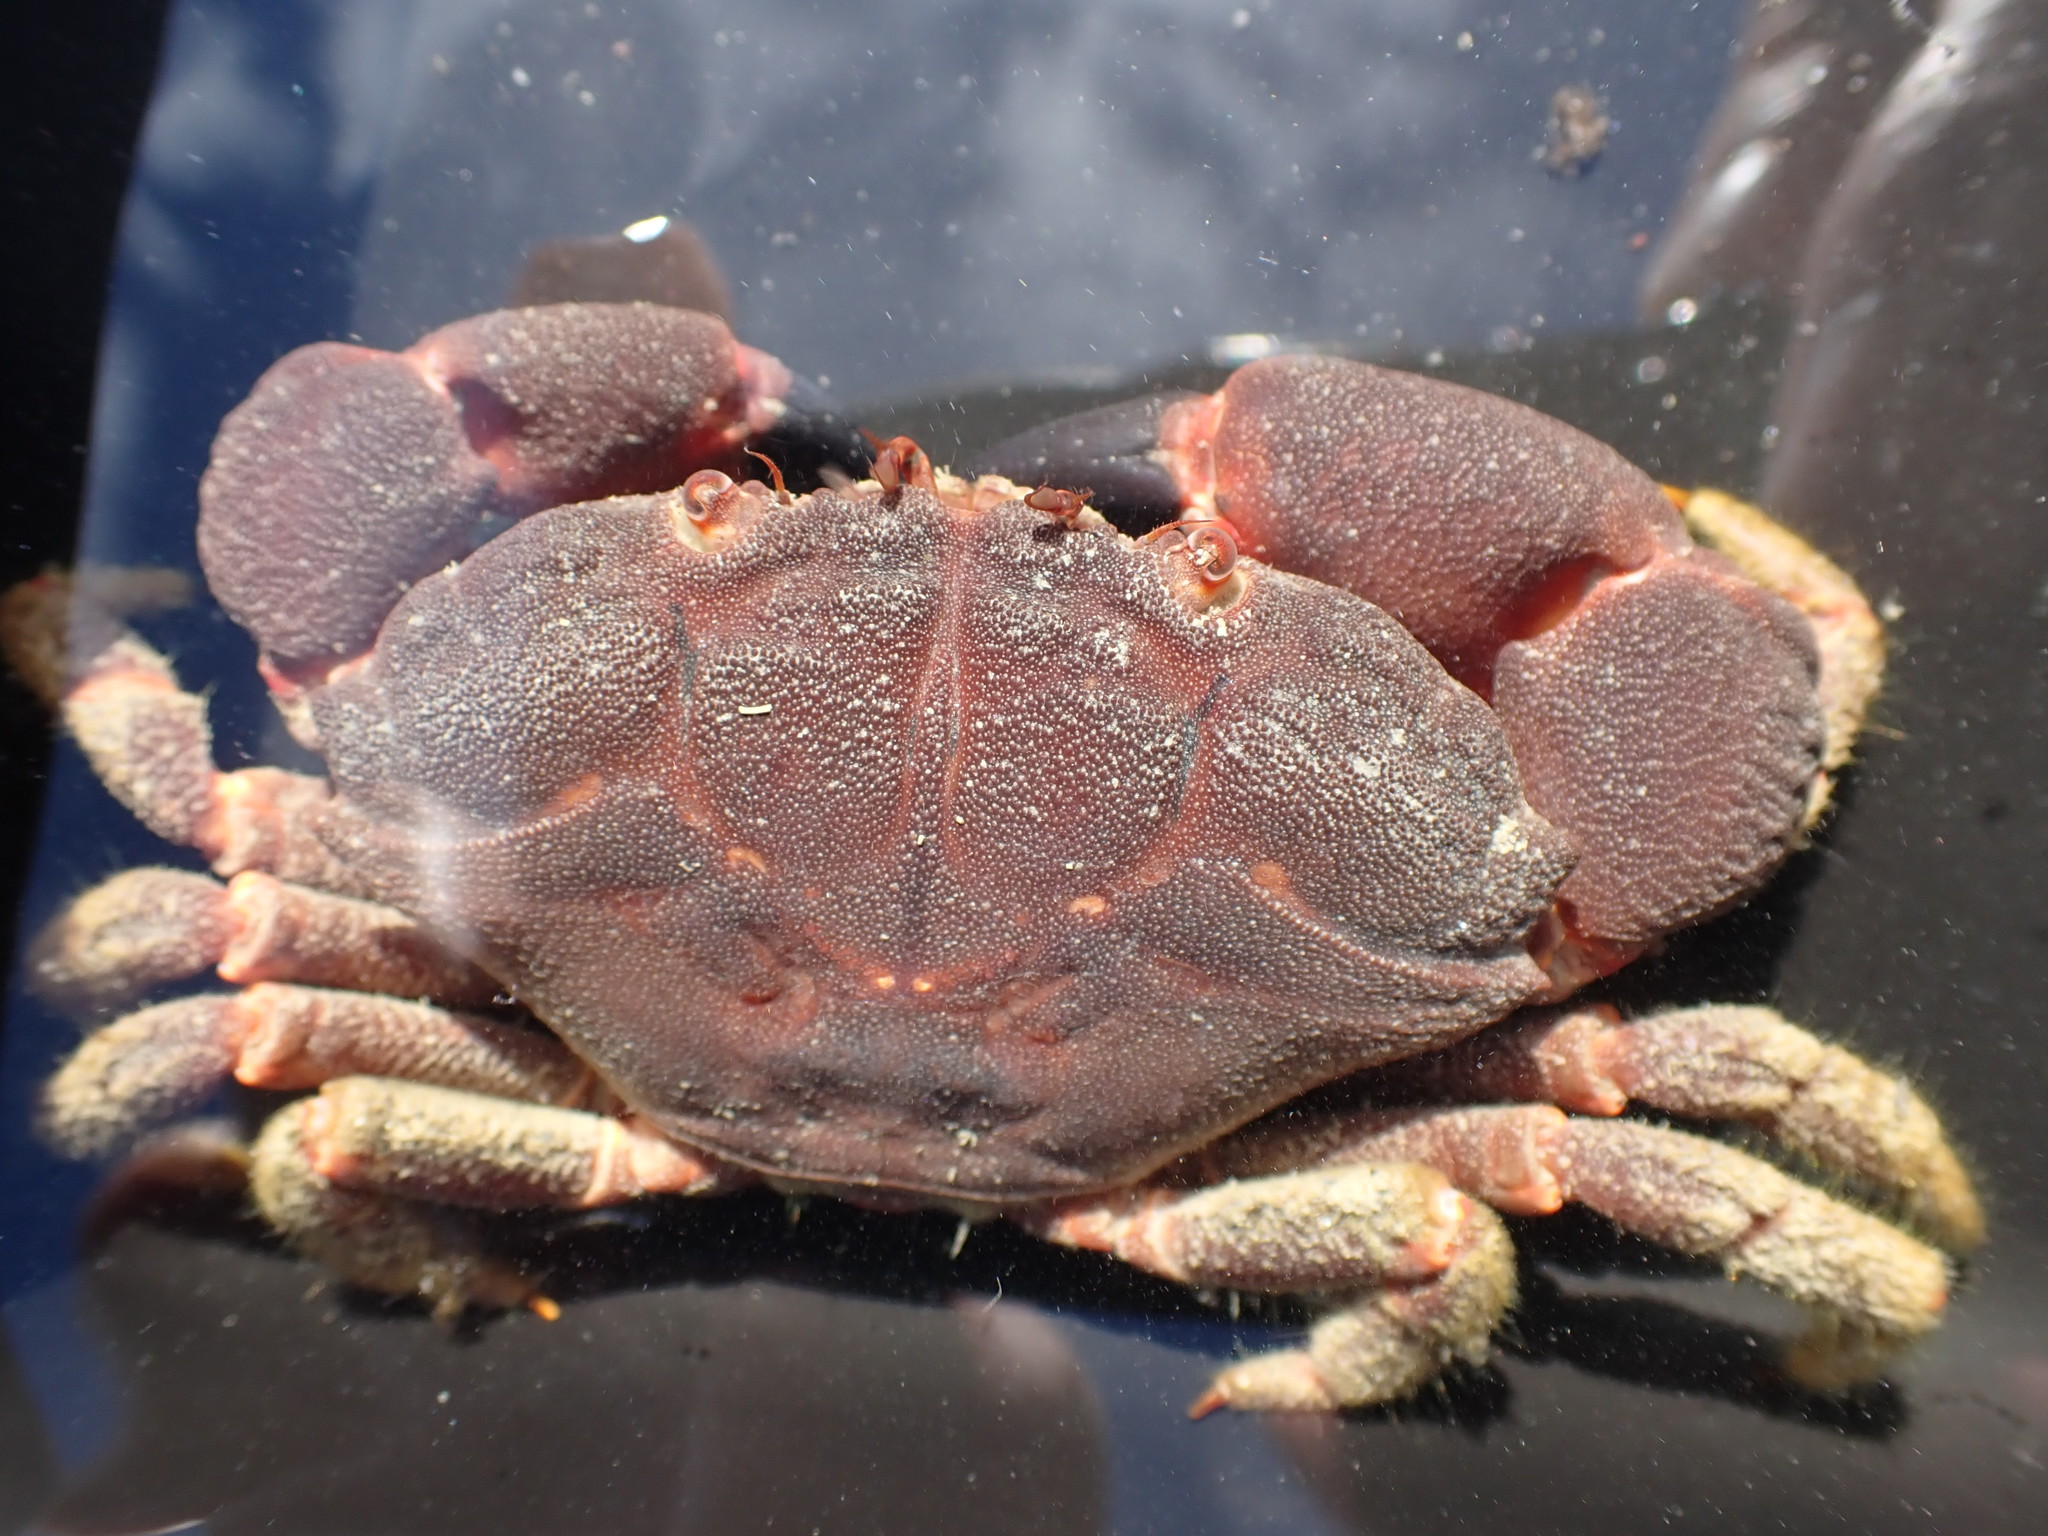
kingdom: Animalia
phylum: Arthropoda
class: Malacostraca
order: Decapoda
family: Oziidae
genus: Ozius
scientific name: Ozius deplanatus
